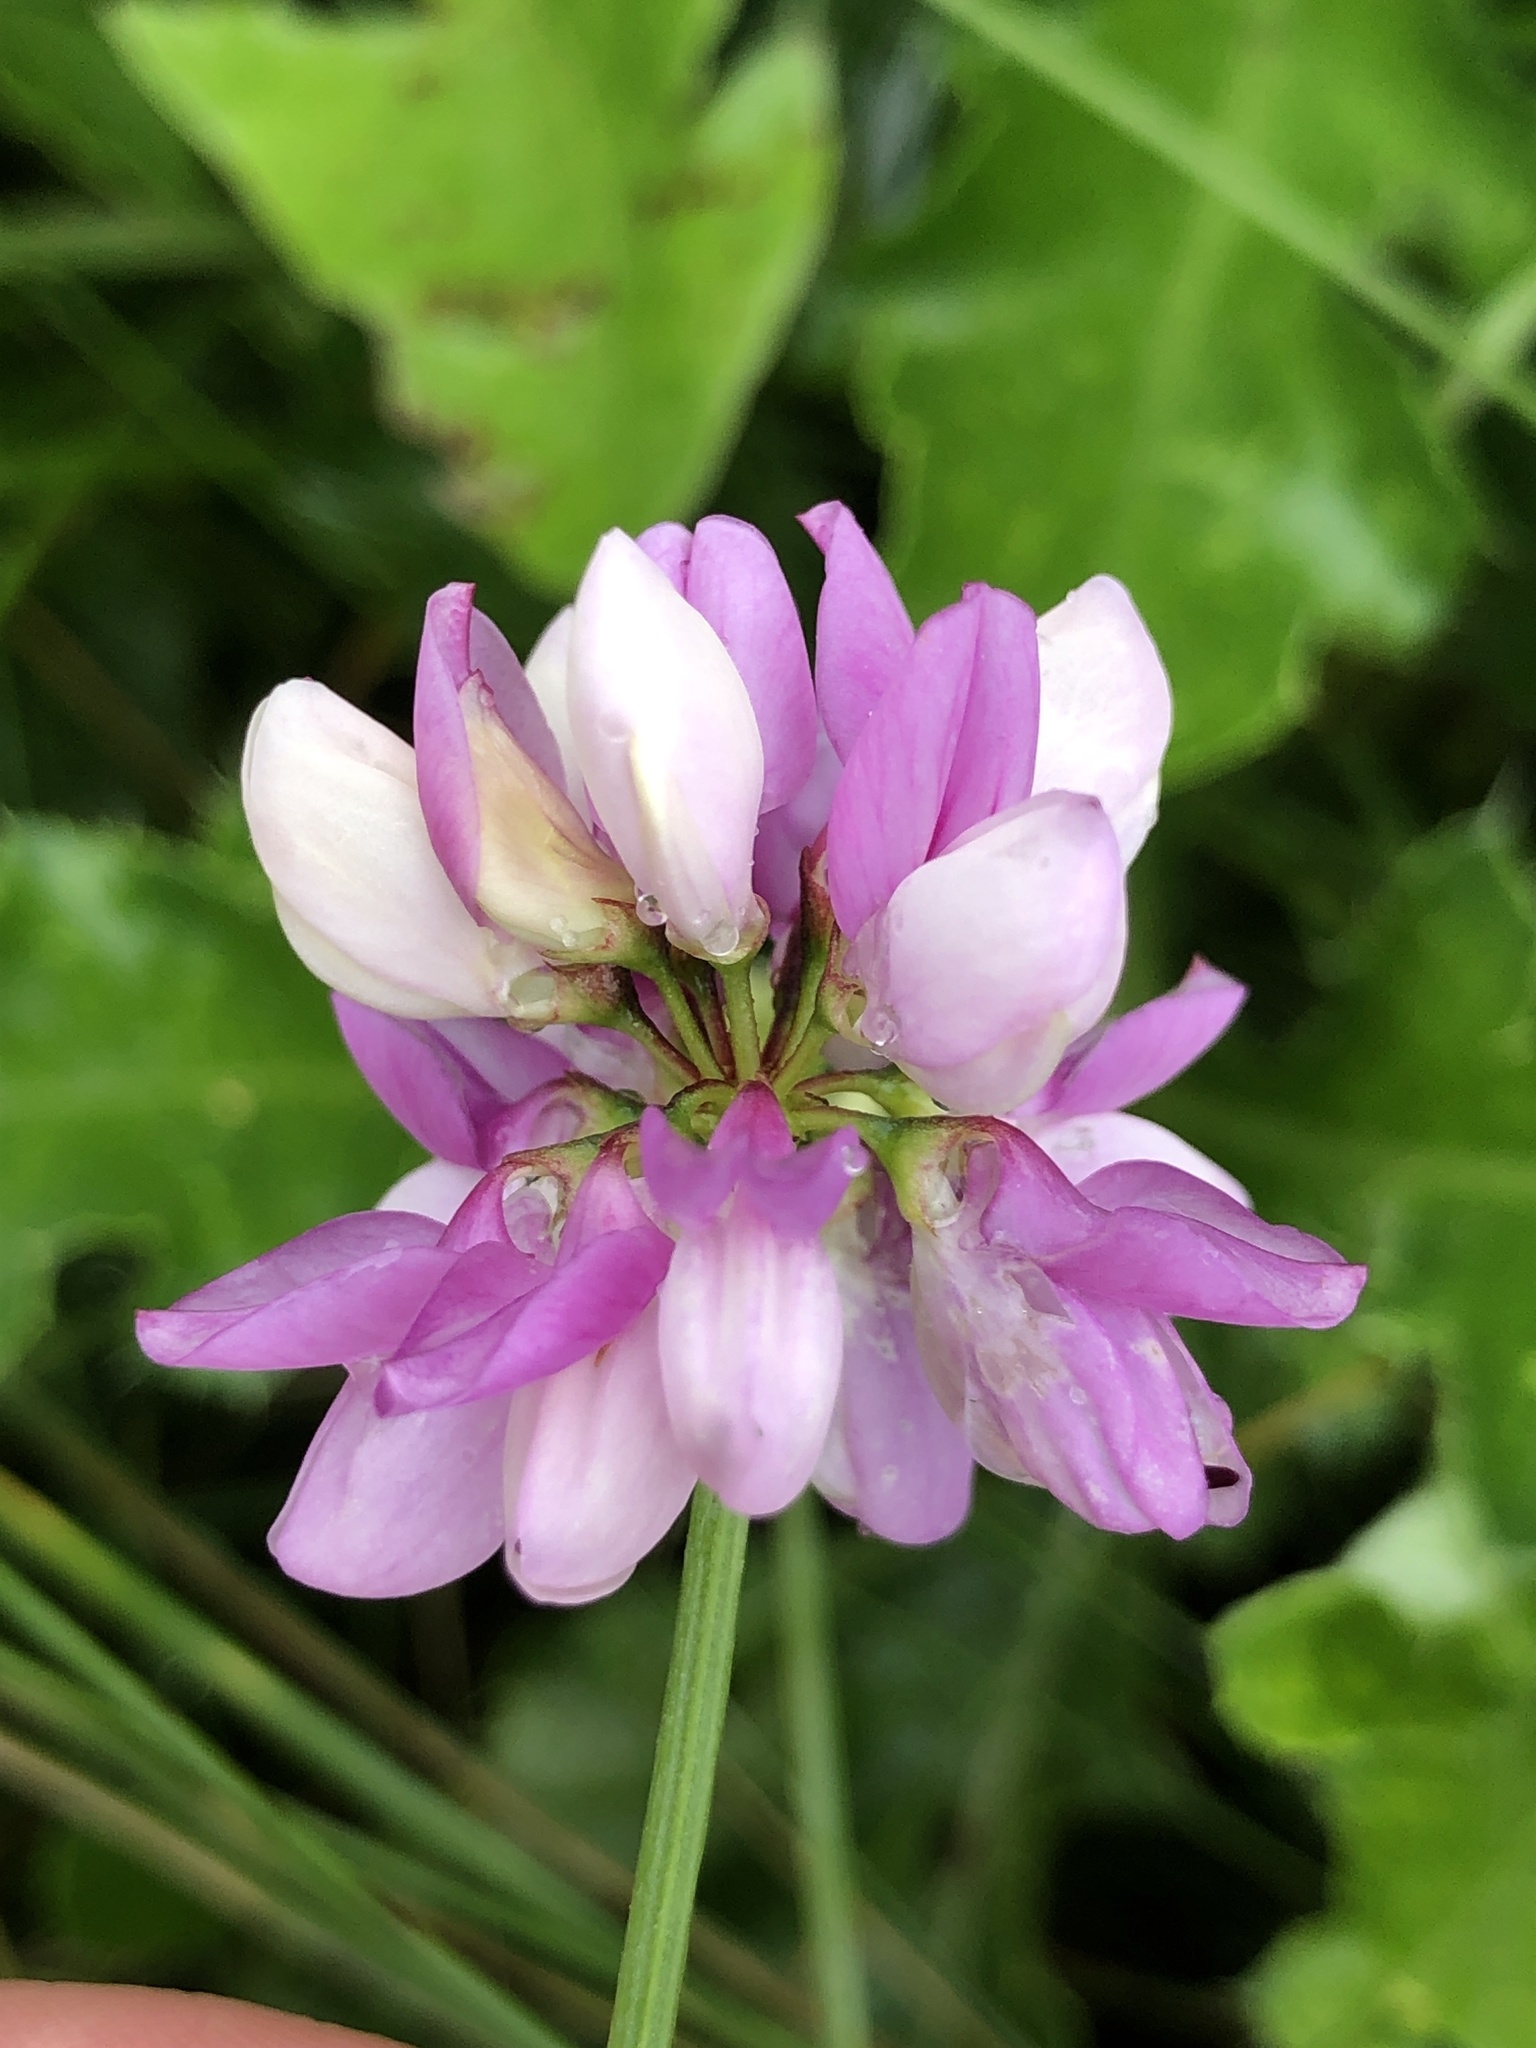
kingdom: Plantae
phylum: Tracheophyta
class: Magnoliopsida
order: Fabales
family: Fabaceae
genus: Coronilla
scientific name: Coronilla varia
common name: Crownvetch
